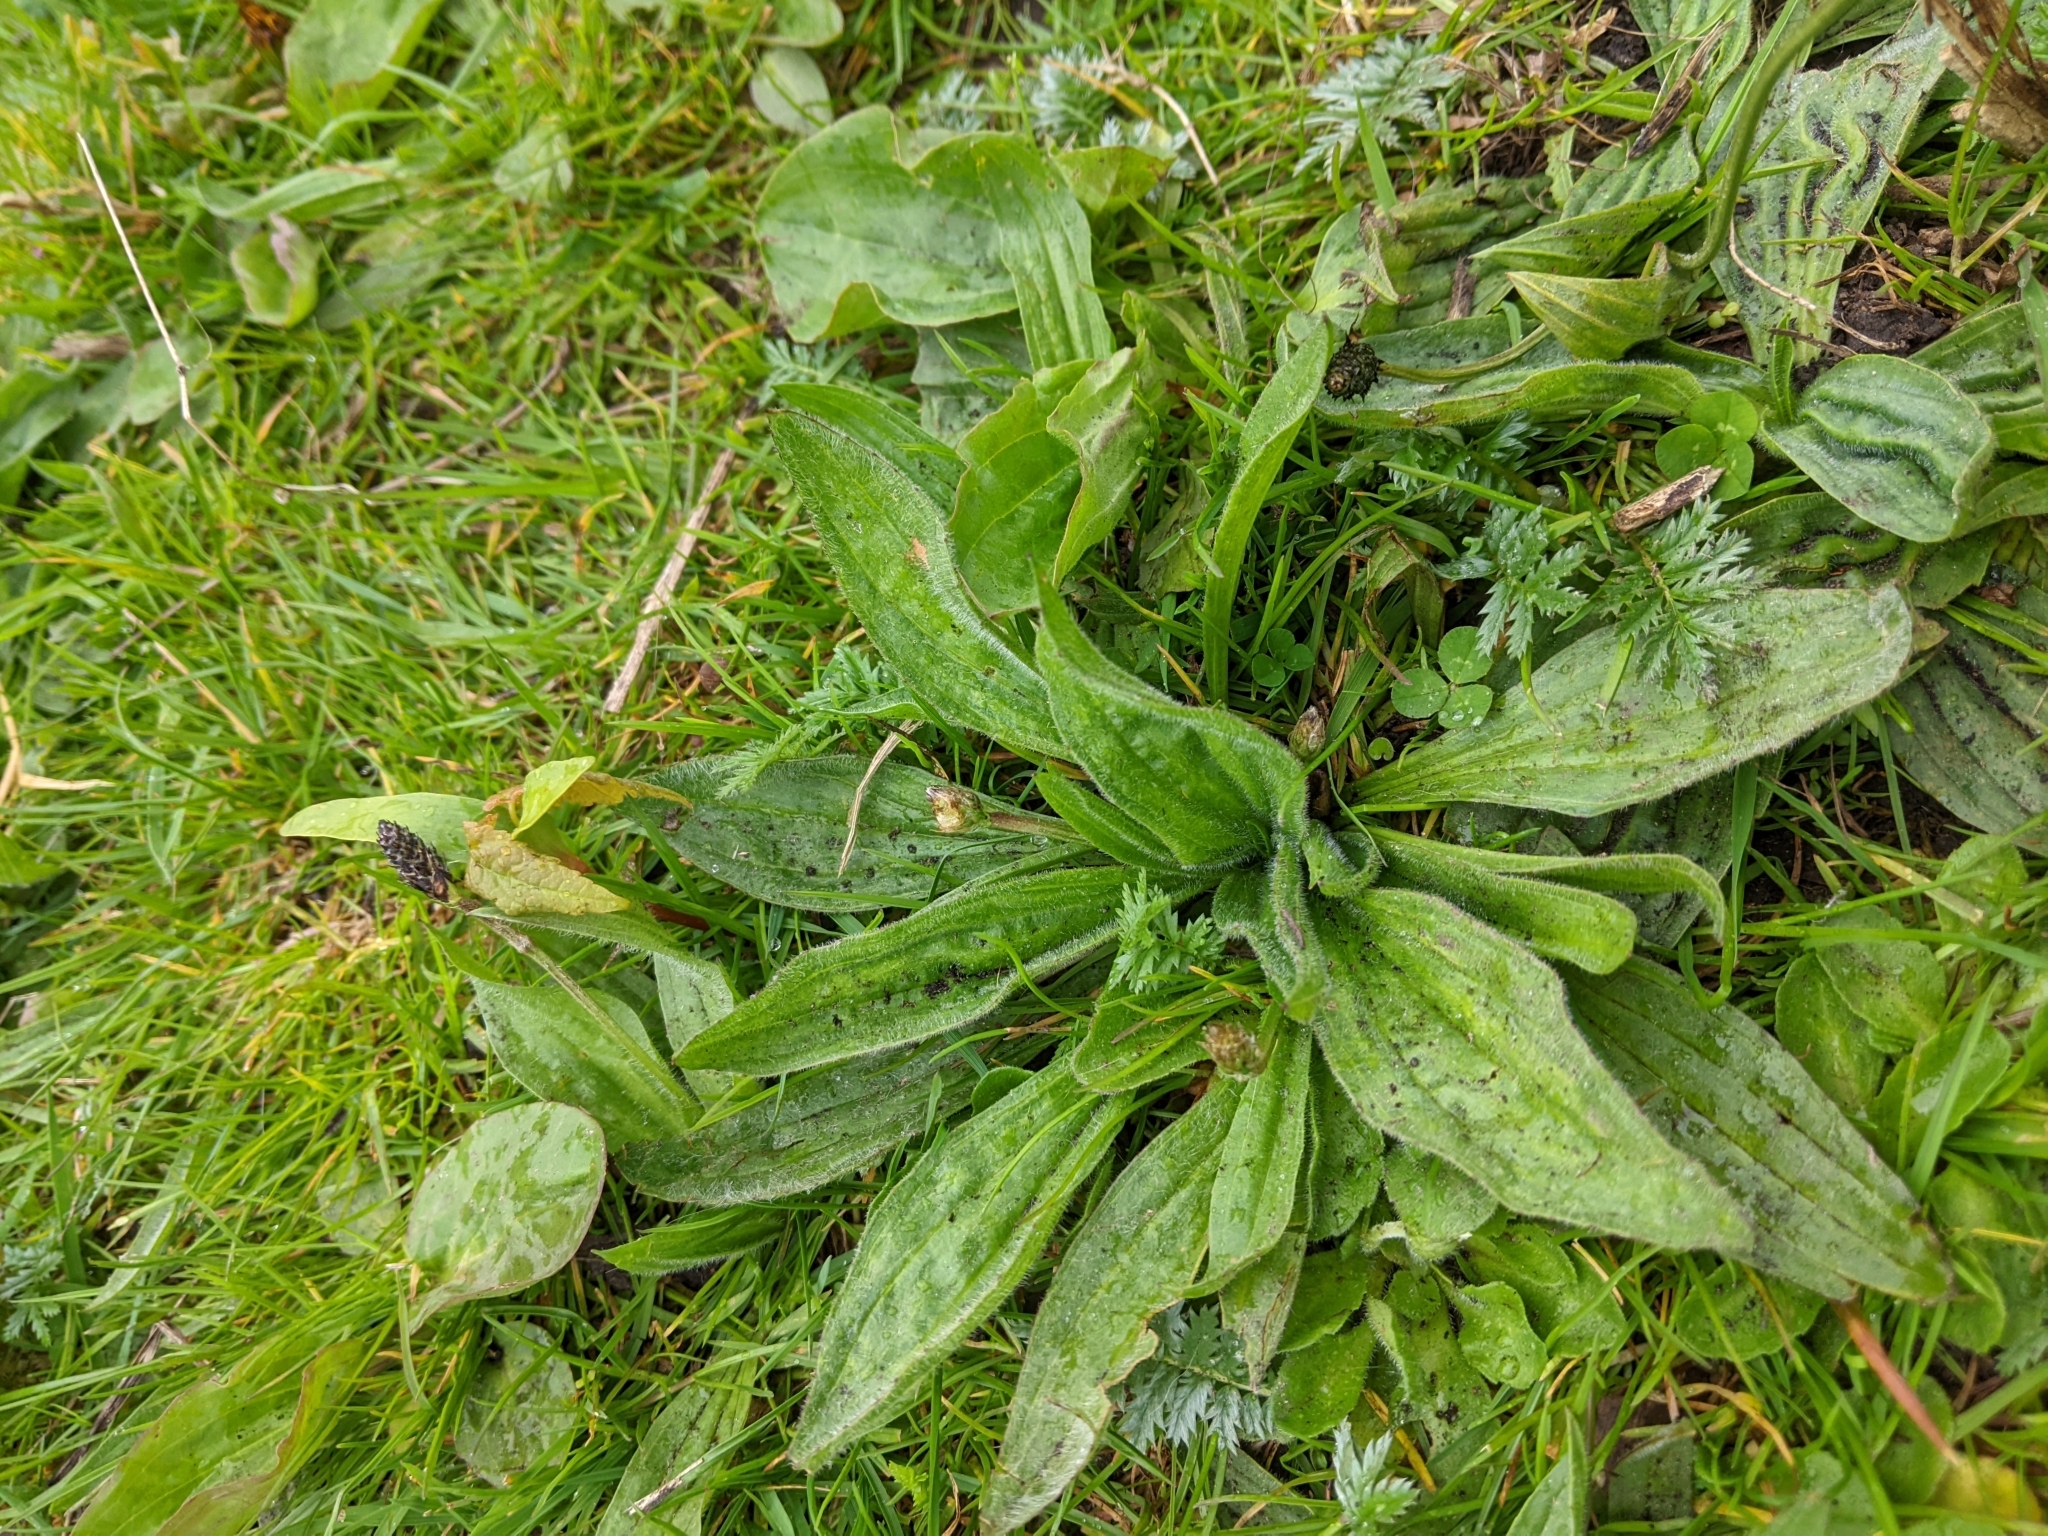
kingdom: Plantae
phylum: Tracheophyta
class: Magnoliopsida
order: Lamiales
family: Plantaginaceae
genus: Plantago
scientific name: Plantago lanceolata
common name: Ribwort plantain
